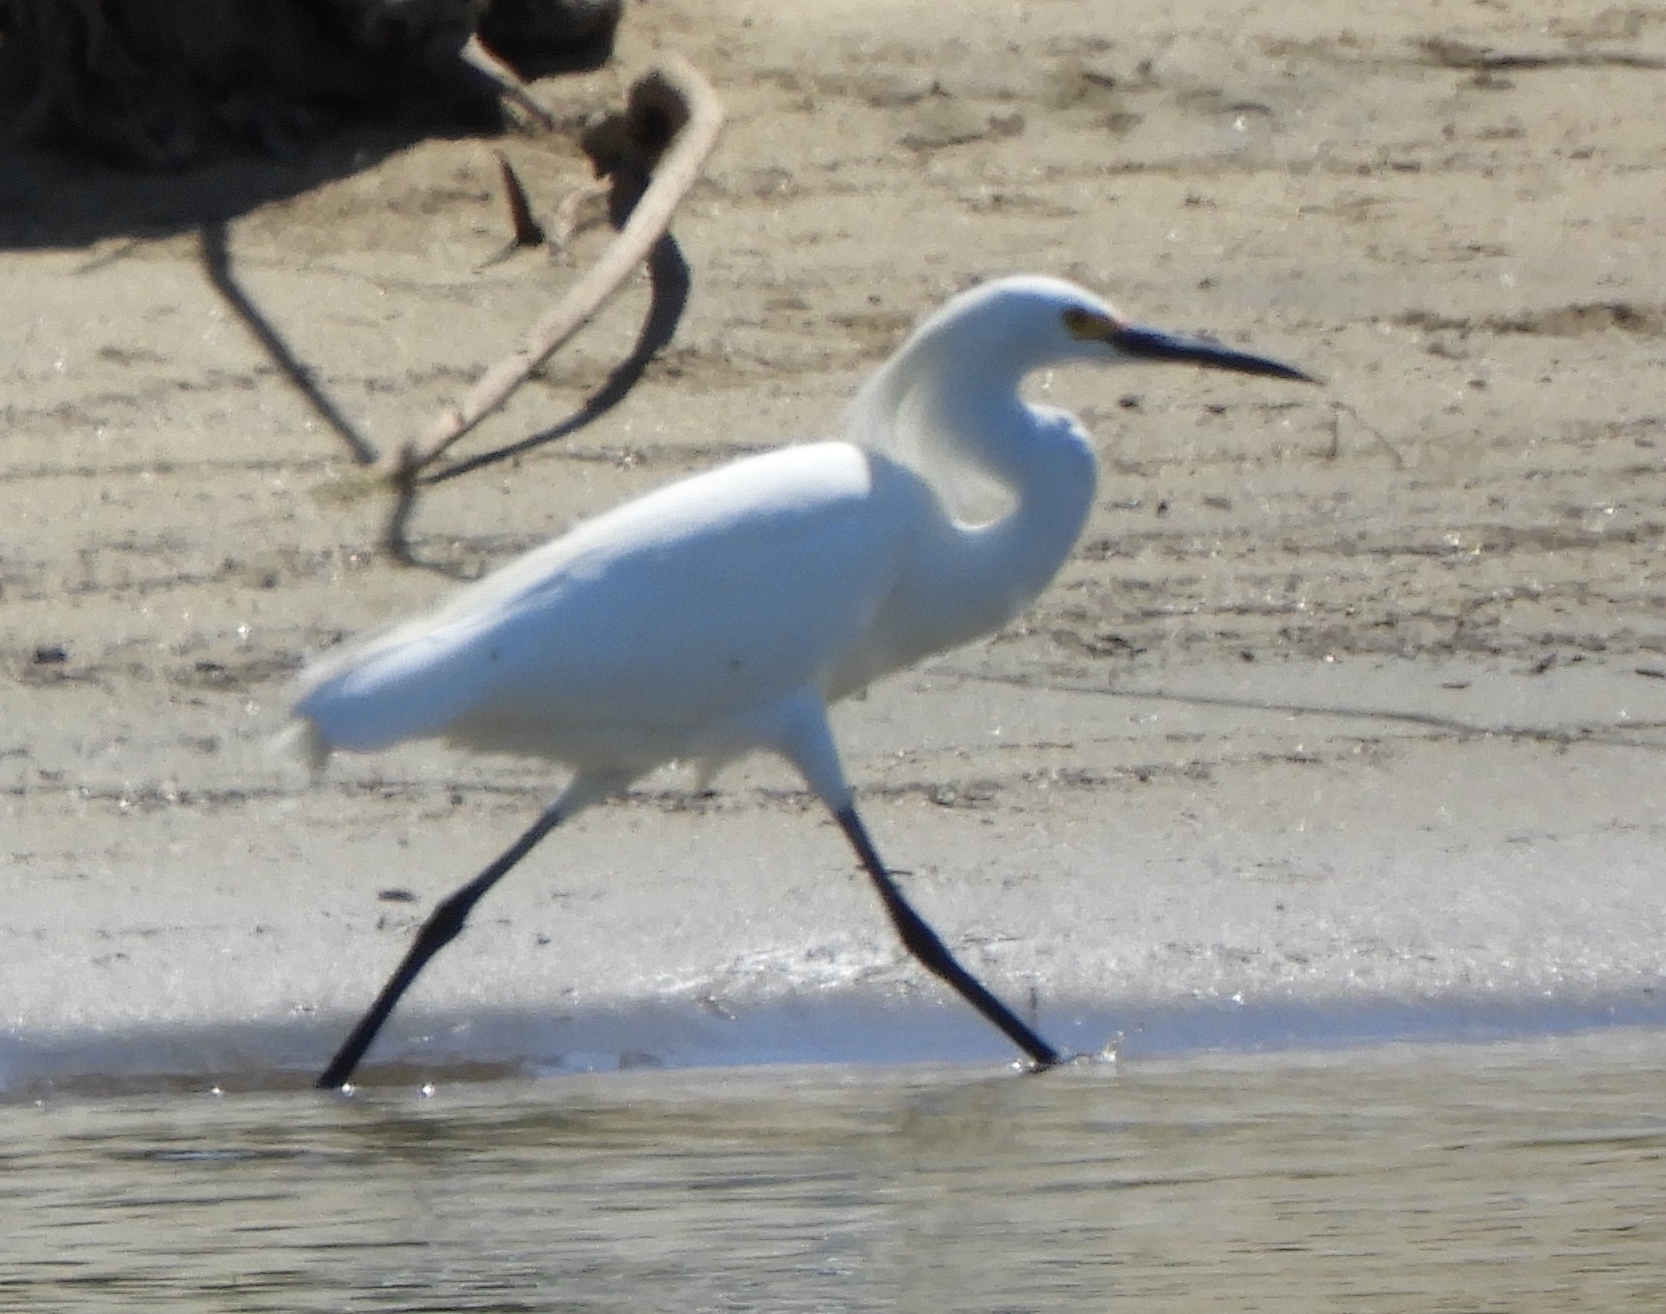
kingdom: Animalia
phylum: Chordata
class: Aves
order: Pelecaniformes
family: Ardeidae
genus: Egretta
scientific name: Egretta thula
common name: Snowy egret
